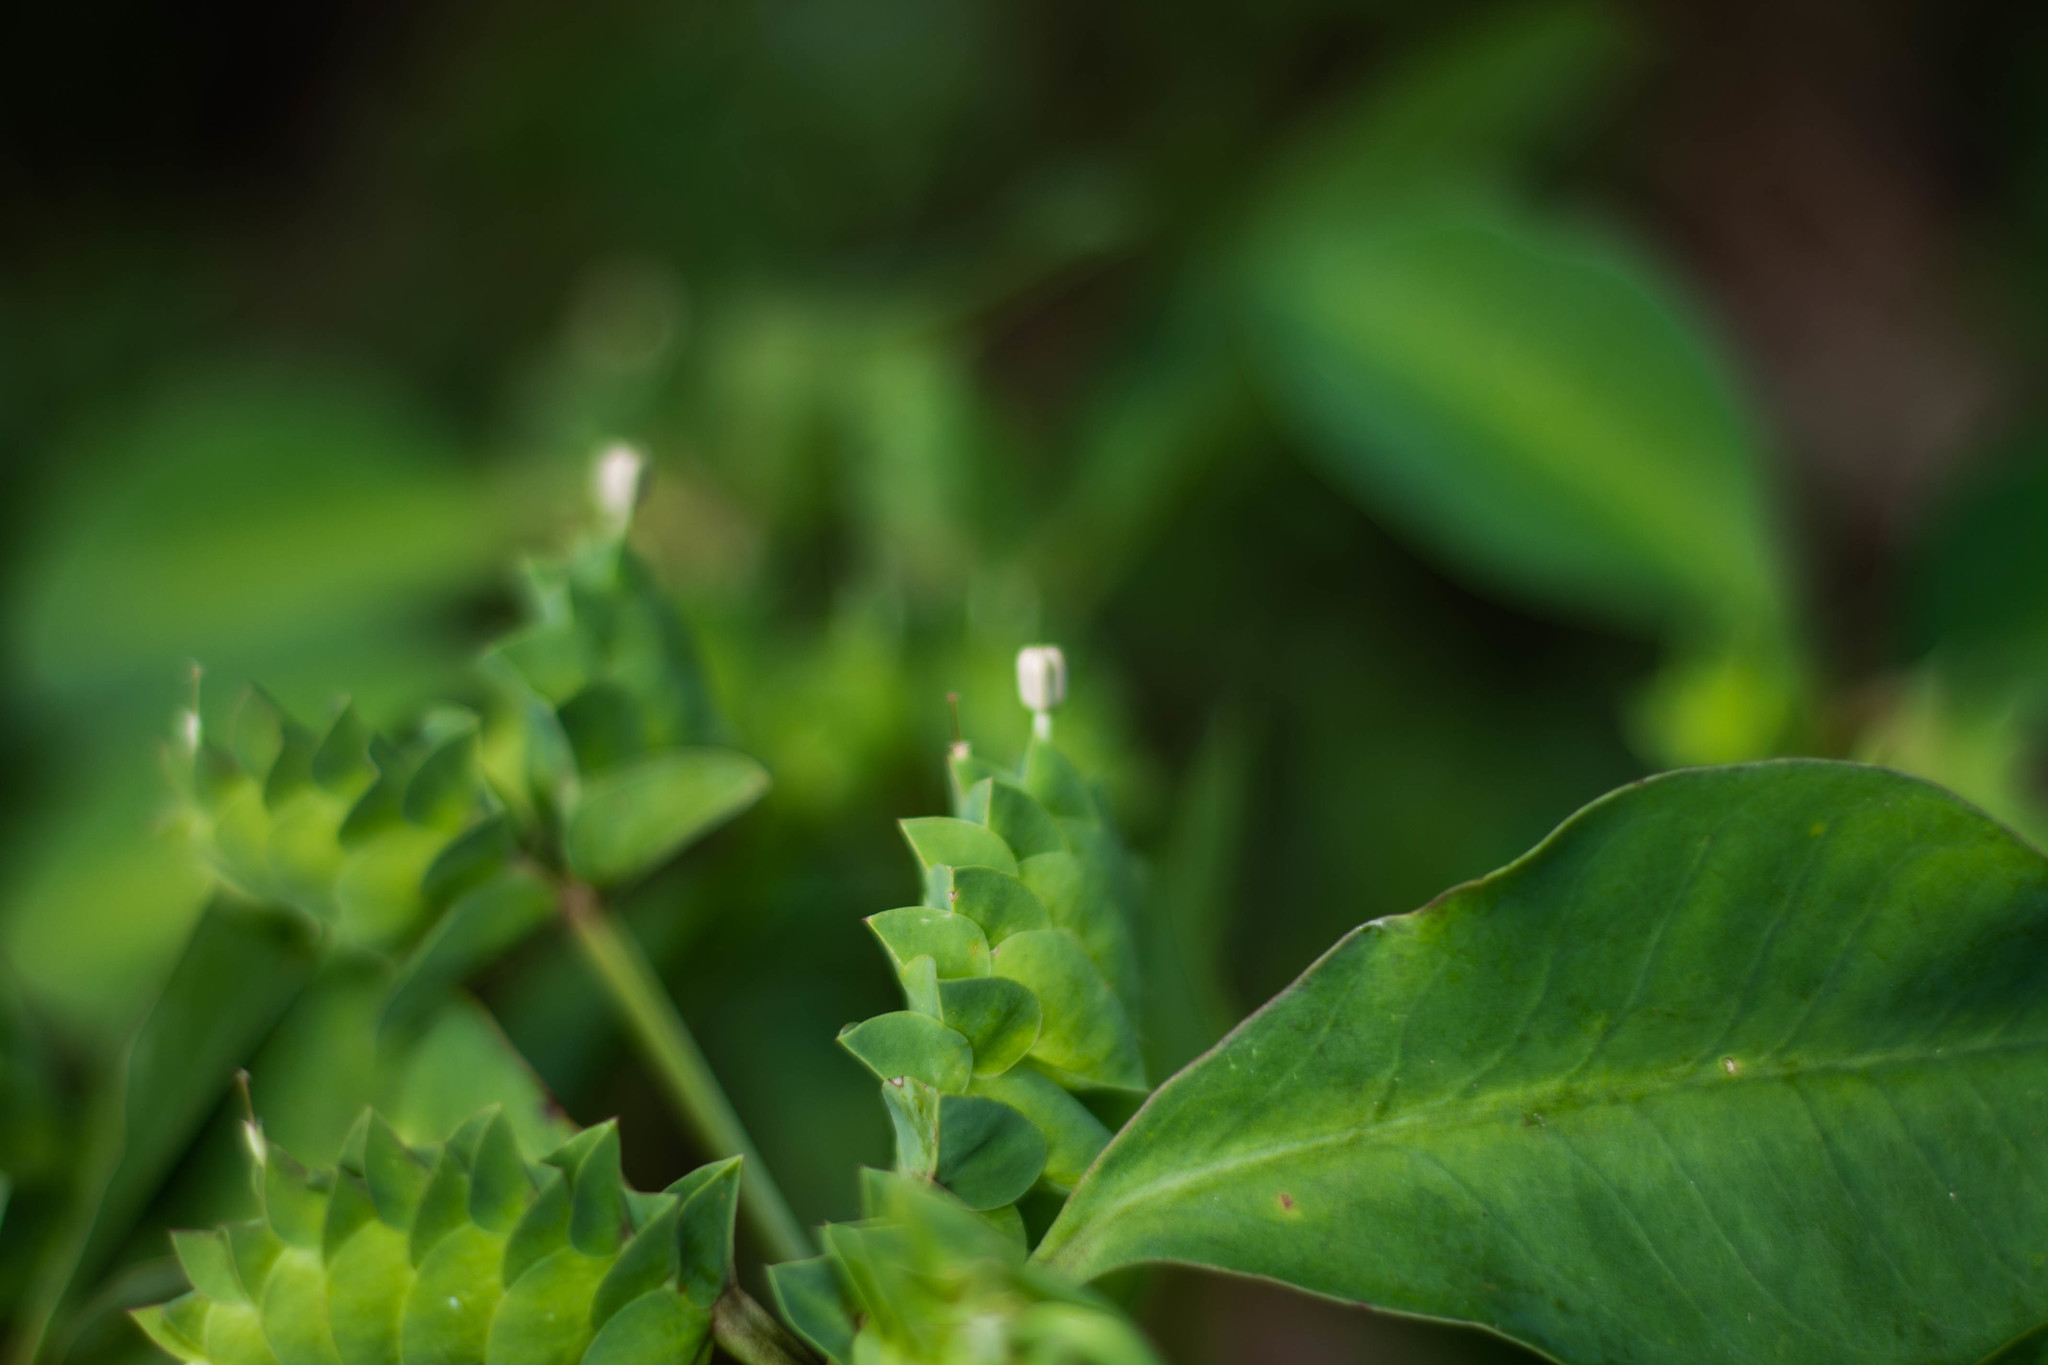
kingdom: Plantae
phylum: Tracheophyta
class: Magnoliopsida
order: Malpighiales
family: Euphorbiaceae
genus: Euphorbia
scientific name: Euphorbia comosa
